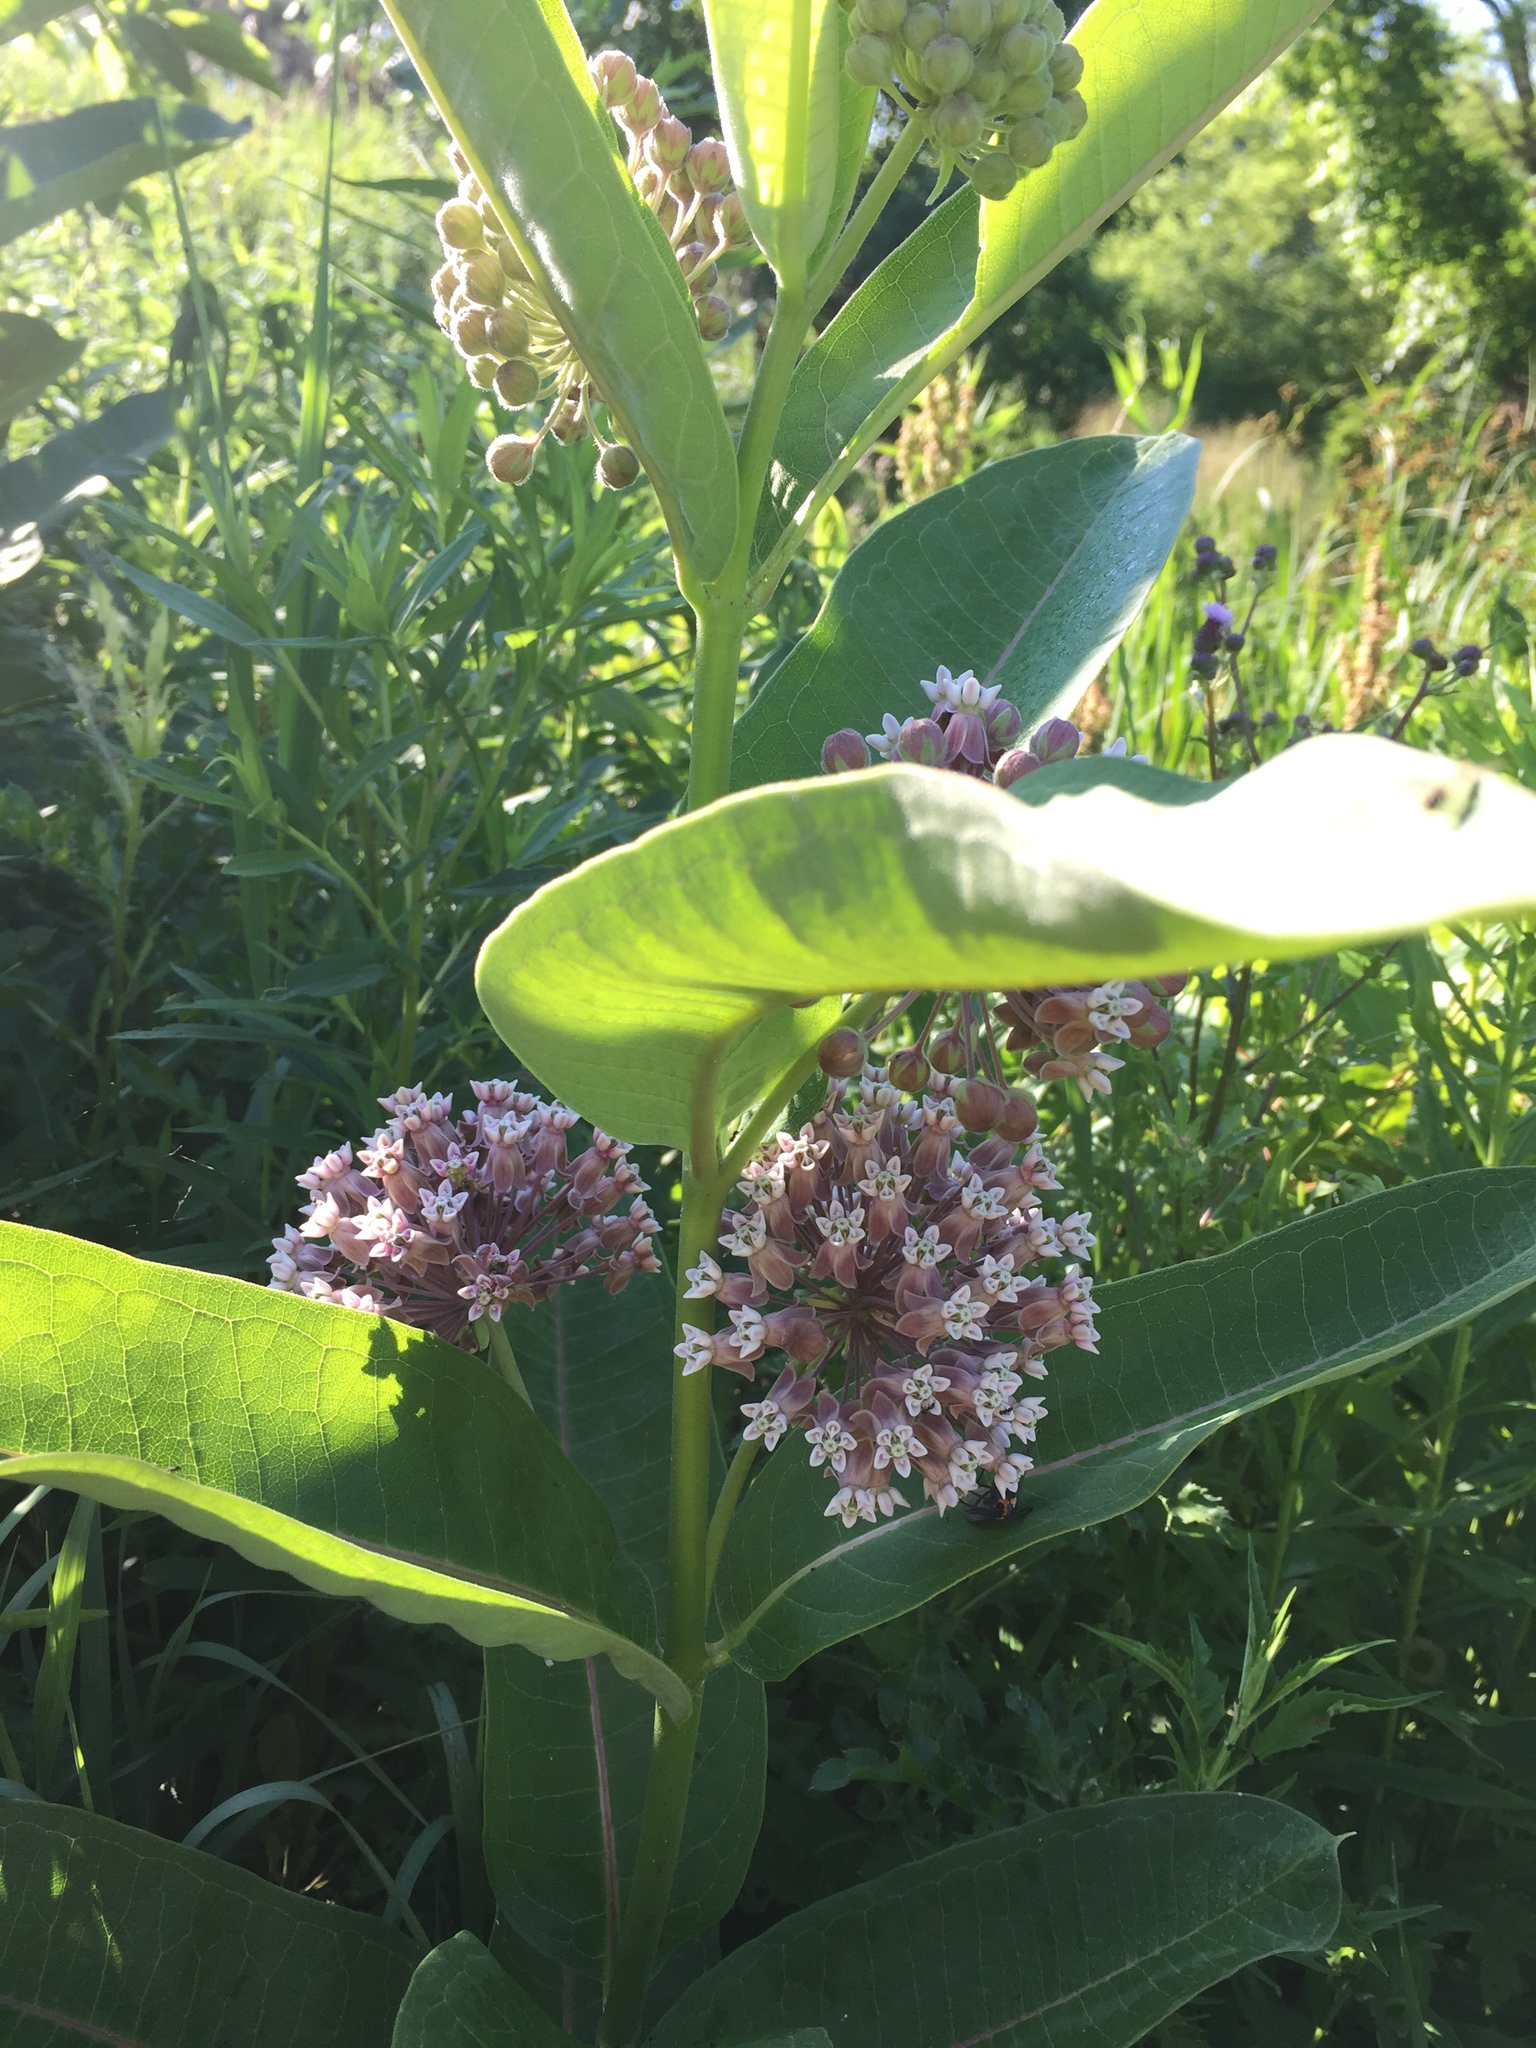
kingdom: Plantae
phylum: Tracheophyta
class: Magnoliopsida
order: Gentianales
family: Apocynaceae
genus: Asclepias
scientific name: Asclepias syriaca
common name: Common milkweed
